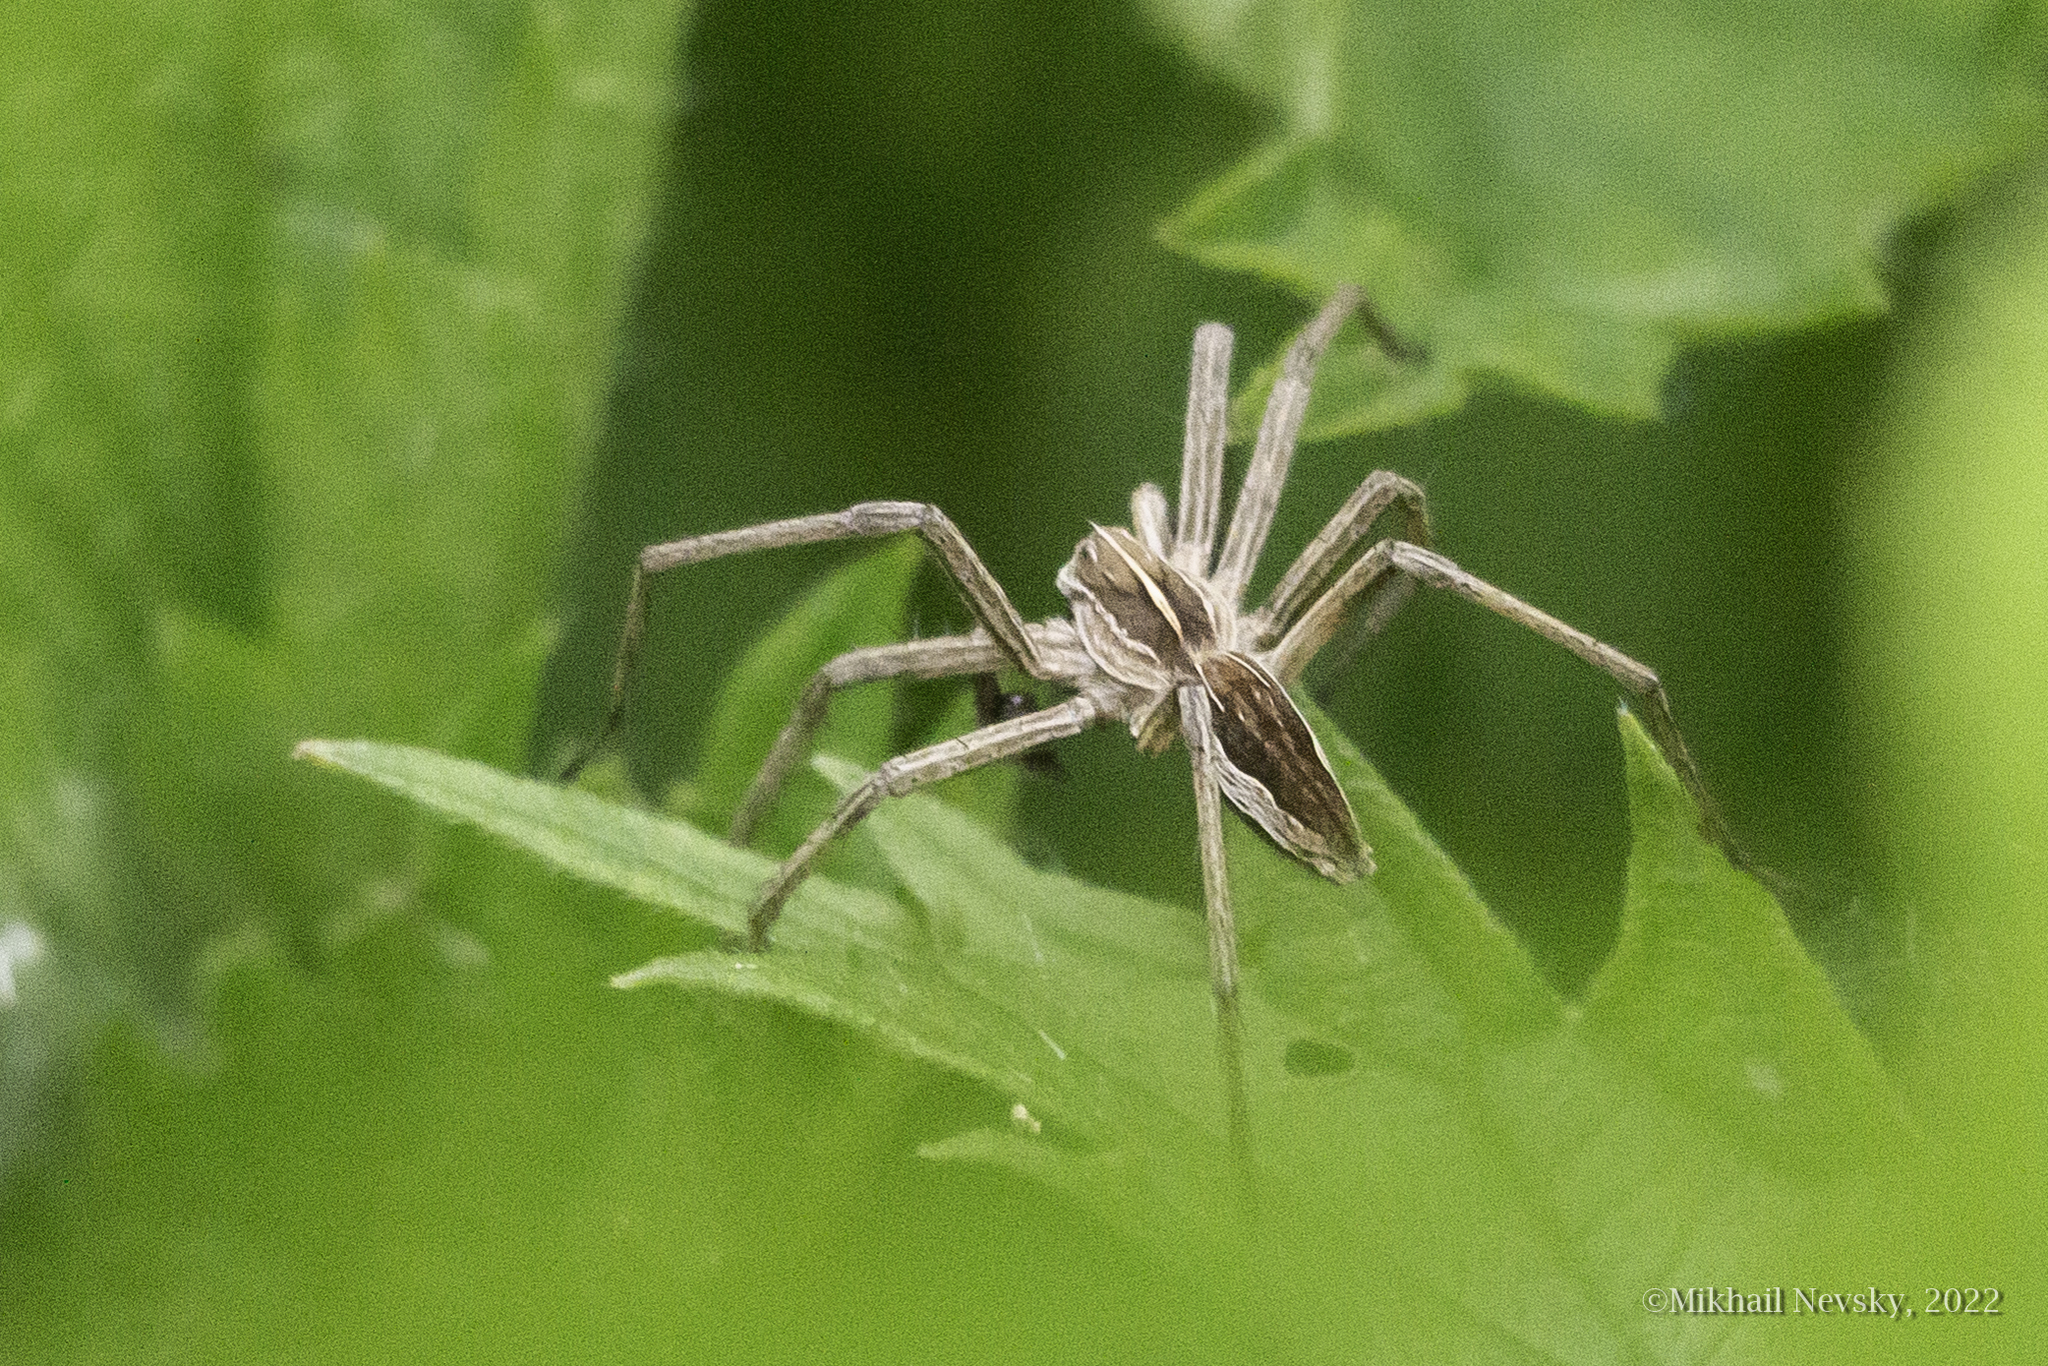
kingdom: Animalia
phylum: Arthropoda
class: Arachnida
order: Araneae
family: Pisauridae
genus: Pisaura
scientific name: Pisaura mirabilis
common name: Tent spider
